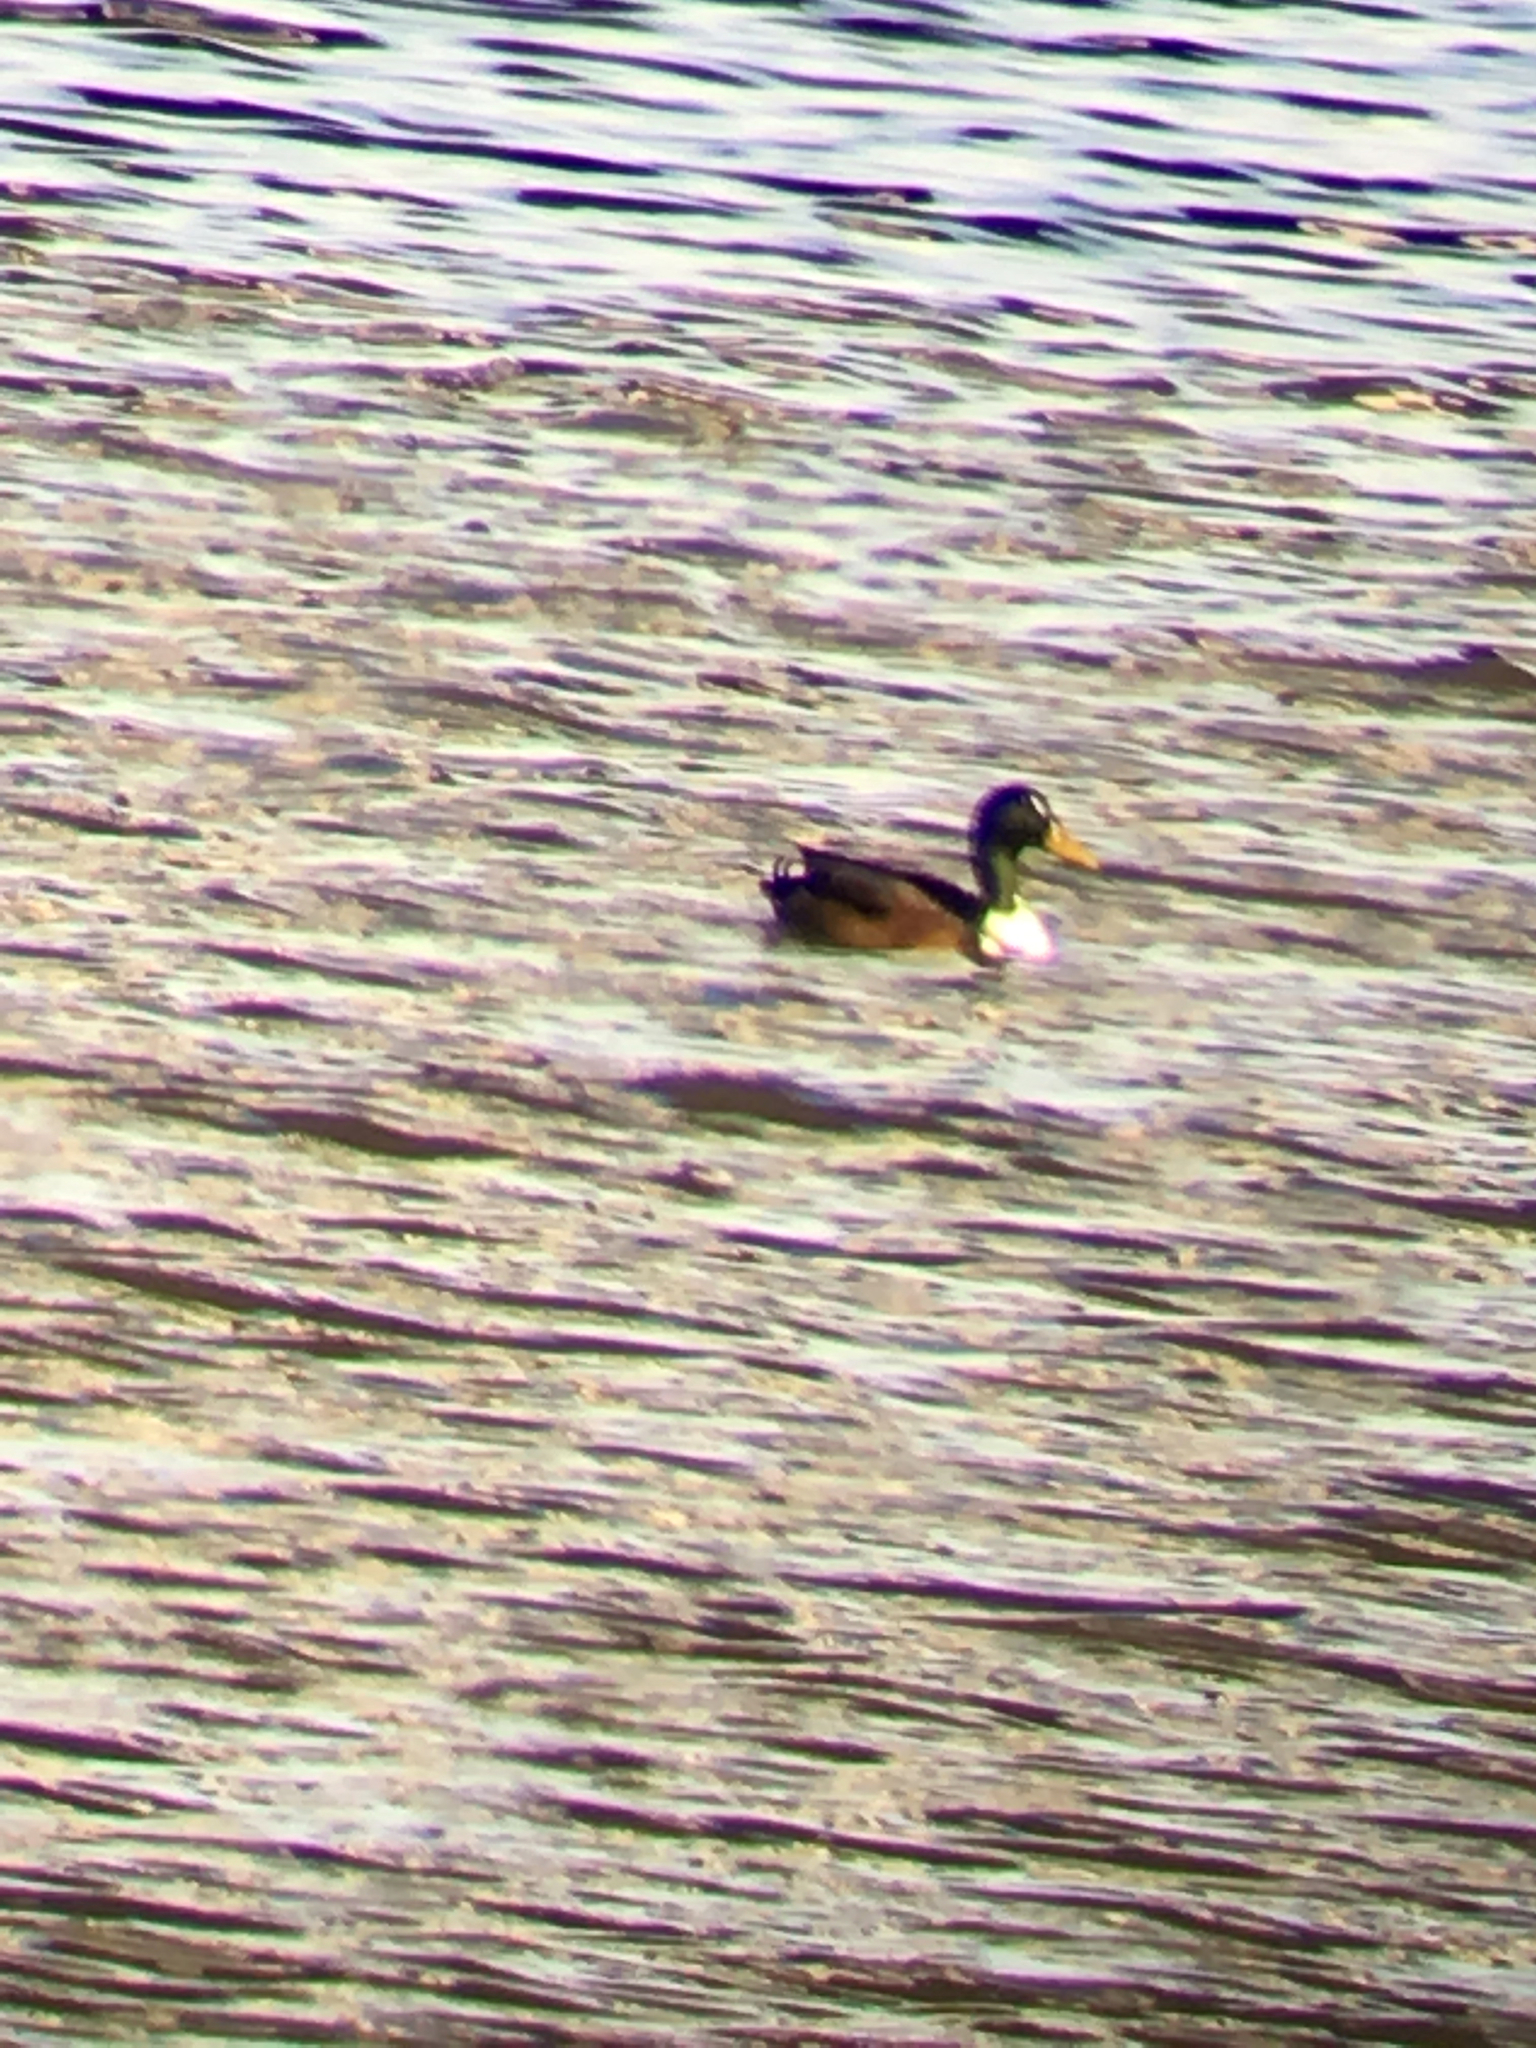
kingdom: Animalia
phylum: Chordata
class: Aves
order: Anseriformes
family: Anatidae
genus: Anas
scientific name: Anas platyrhynchos
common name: Mallard
